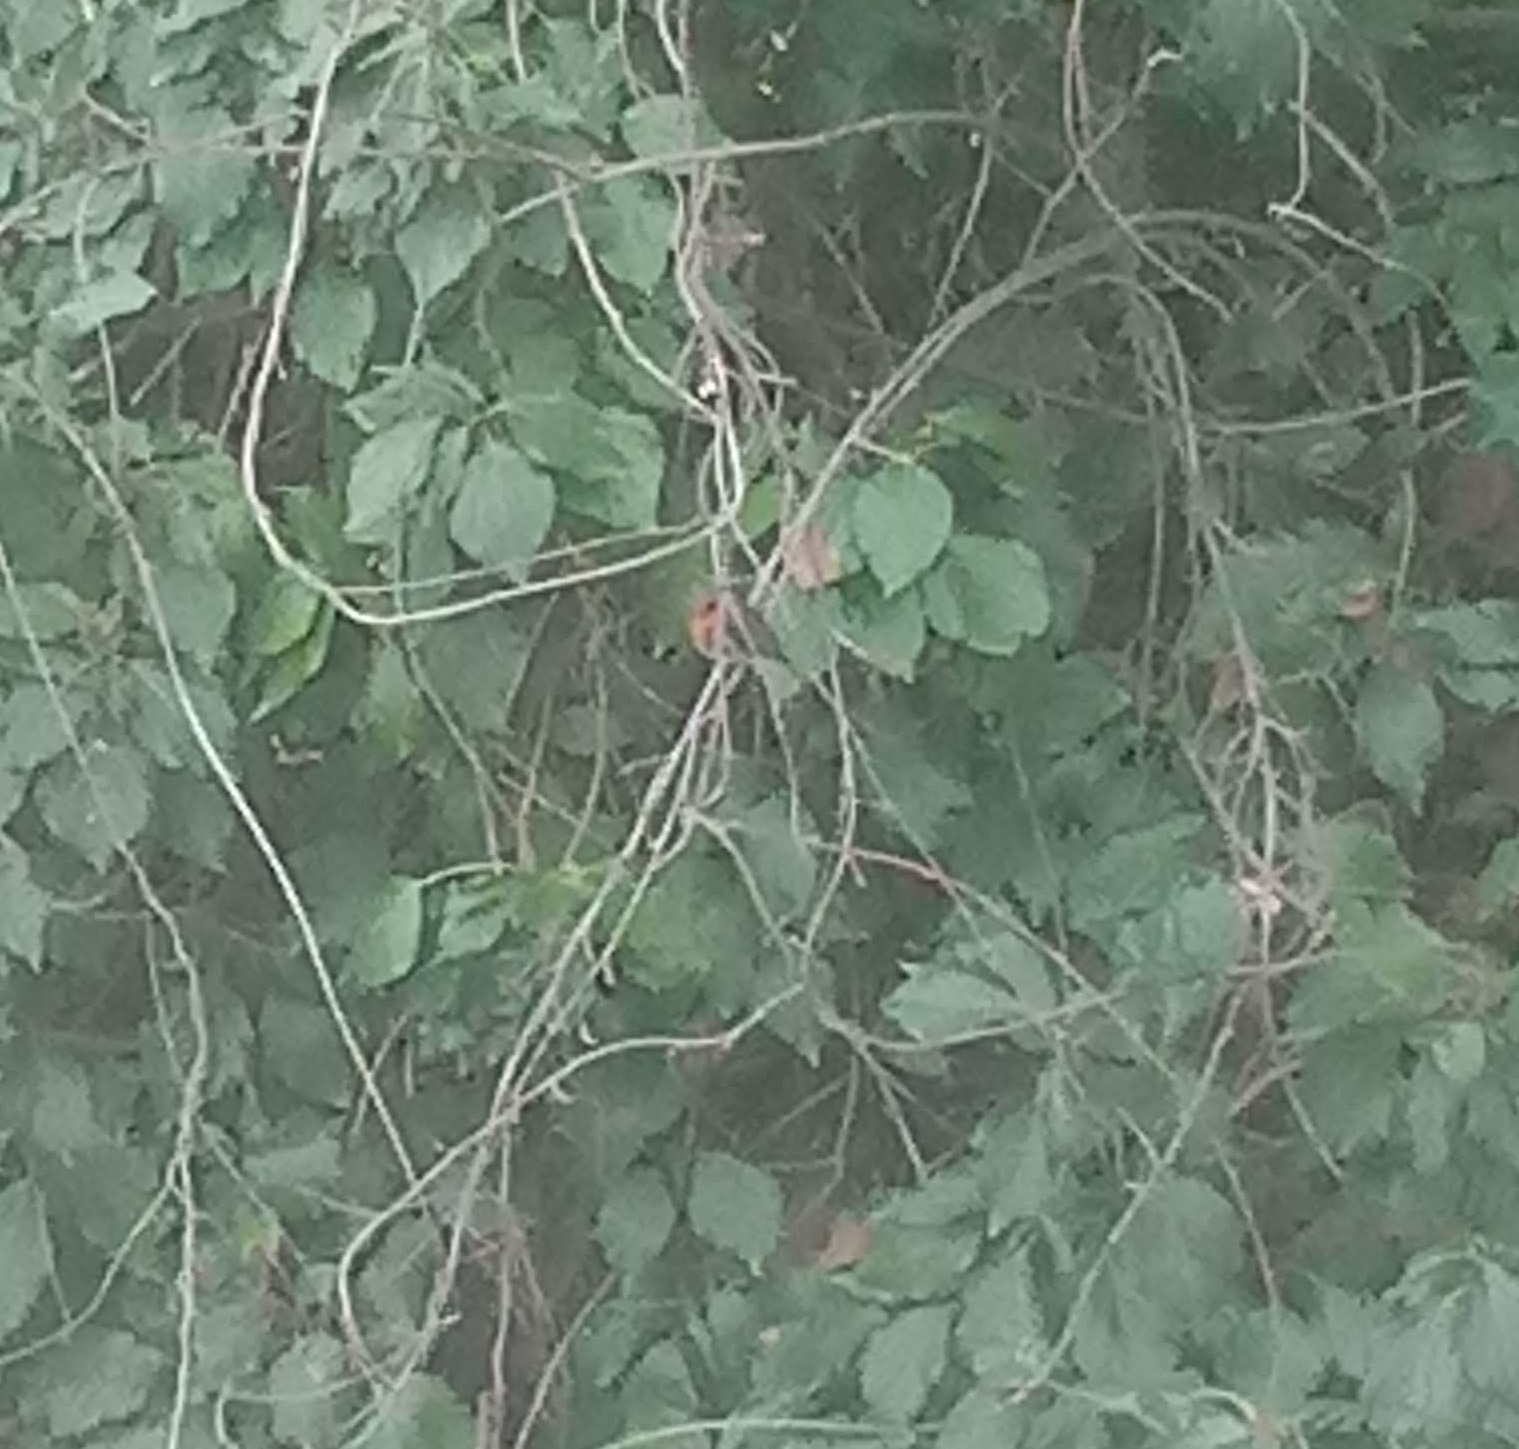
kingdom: Animalia
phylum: Chordata
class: Aves
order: Passeriformes
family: Muscicapidae
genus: Erithacus
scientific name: Erithacus rubecula
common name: European robin
